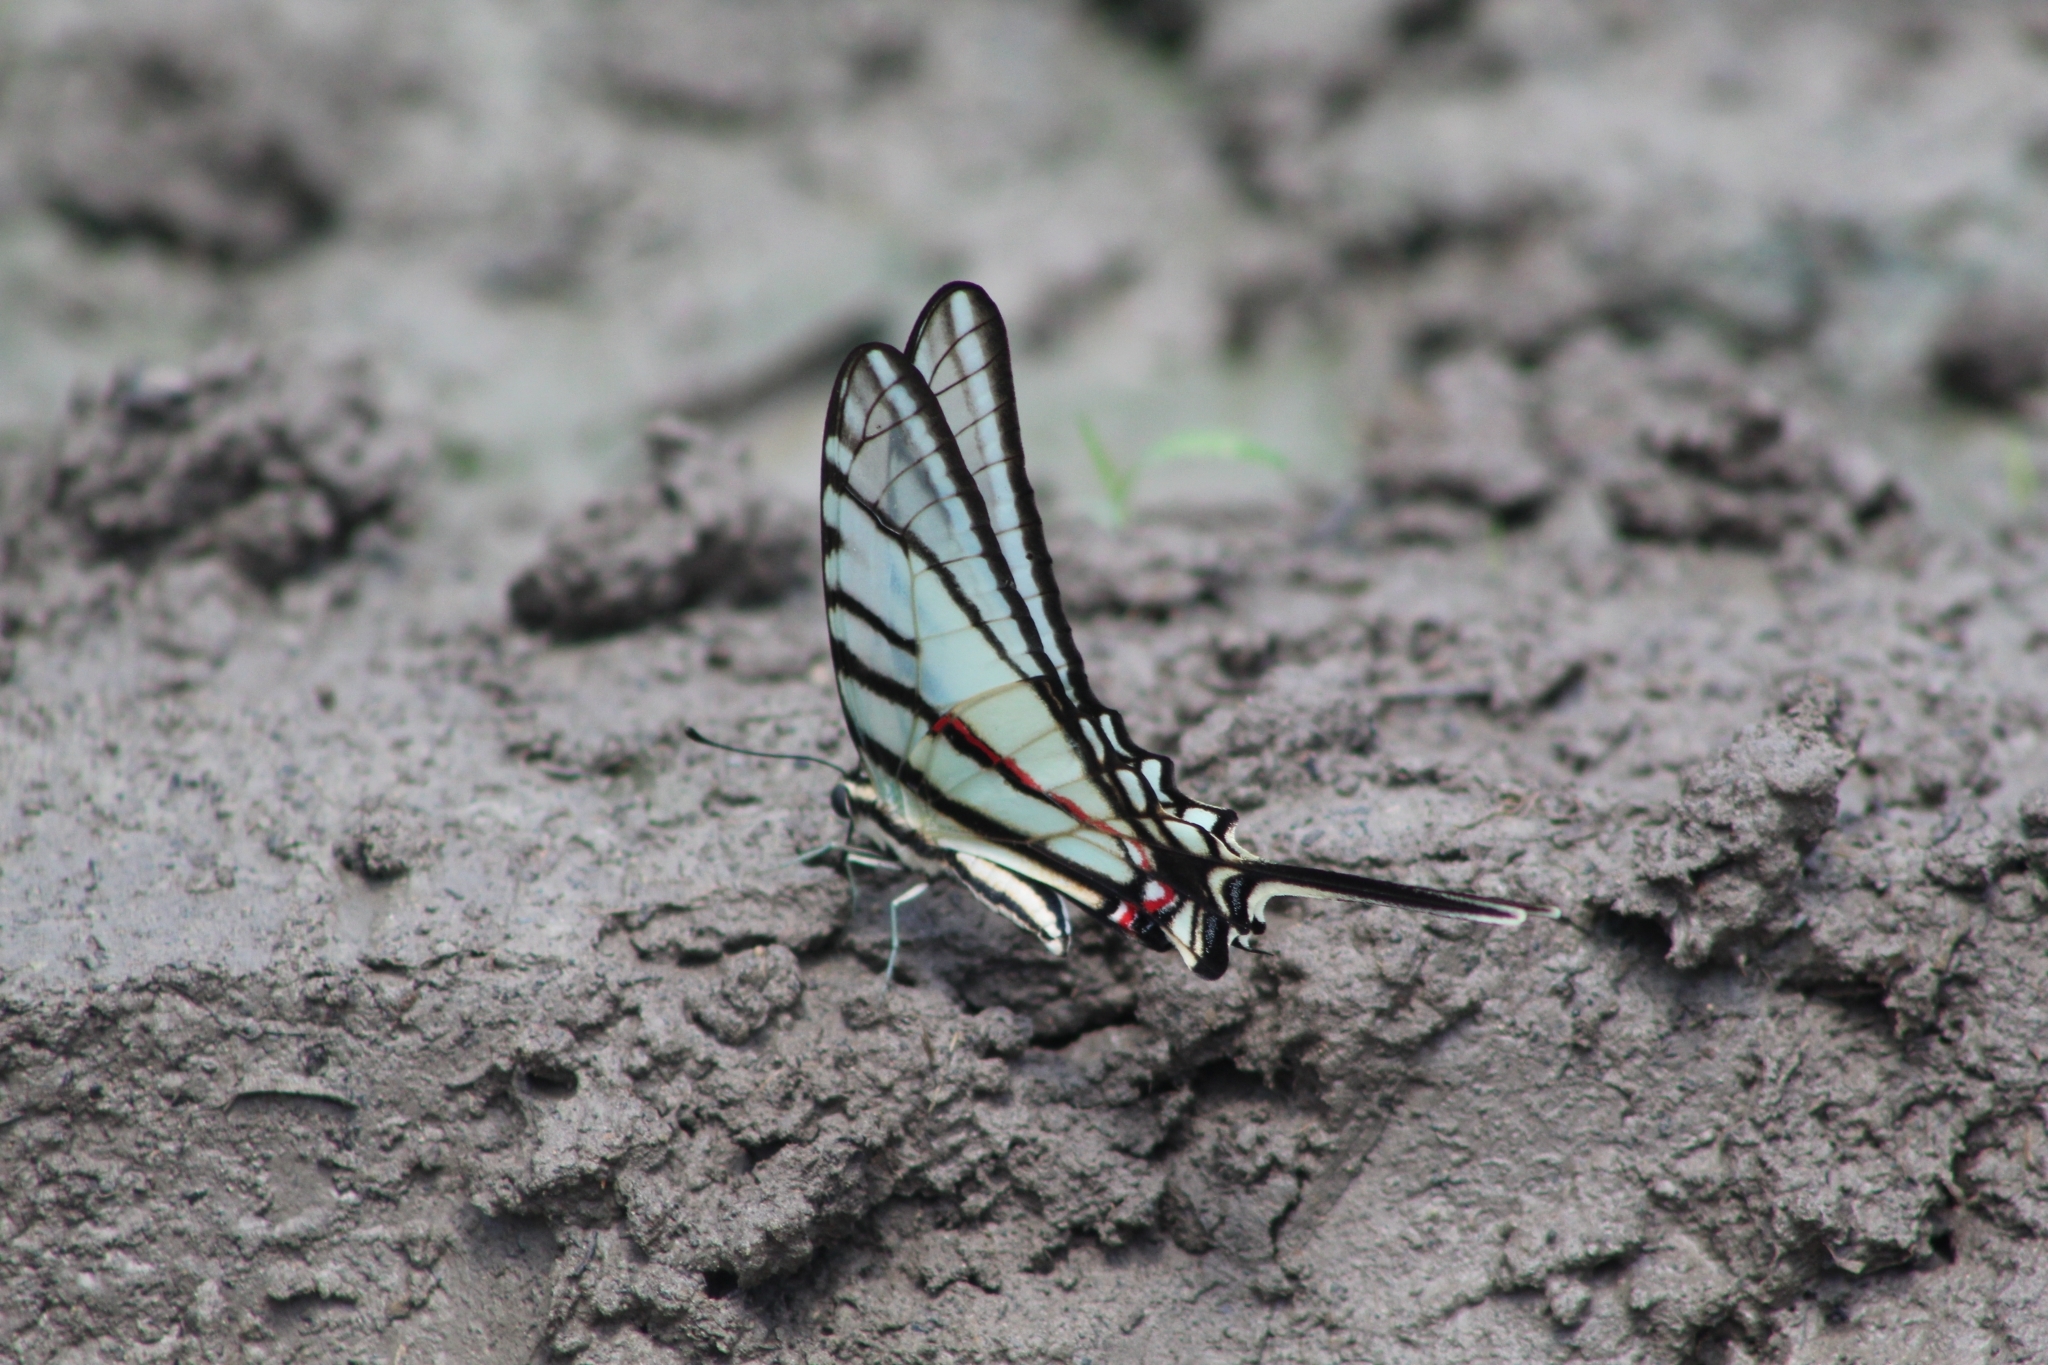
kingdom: Animalia
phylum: Arthropoda
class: Insecta
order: Lepidoptera
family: Papilionidae
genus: Protographium
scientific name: Protographium epidaus
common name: Mexican kite swallowtail
